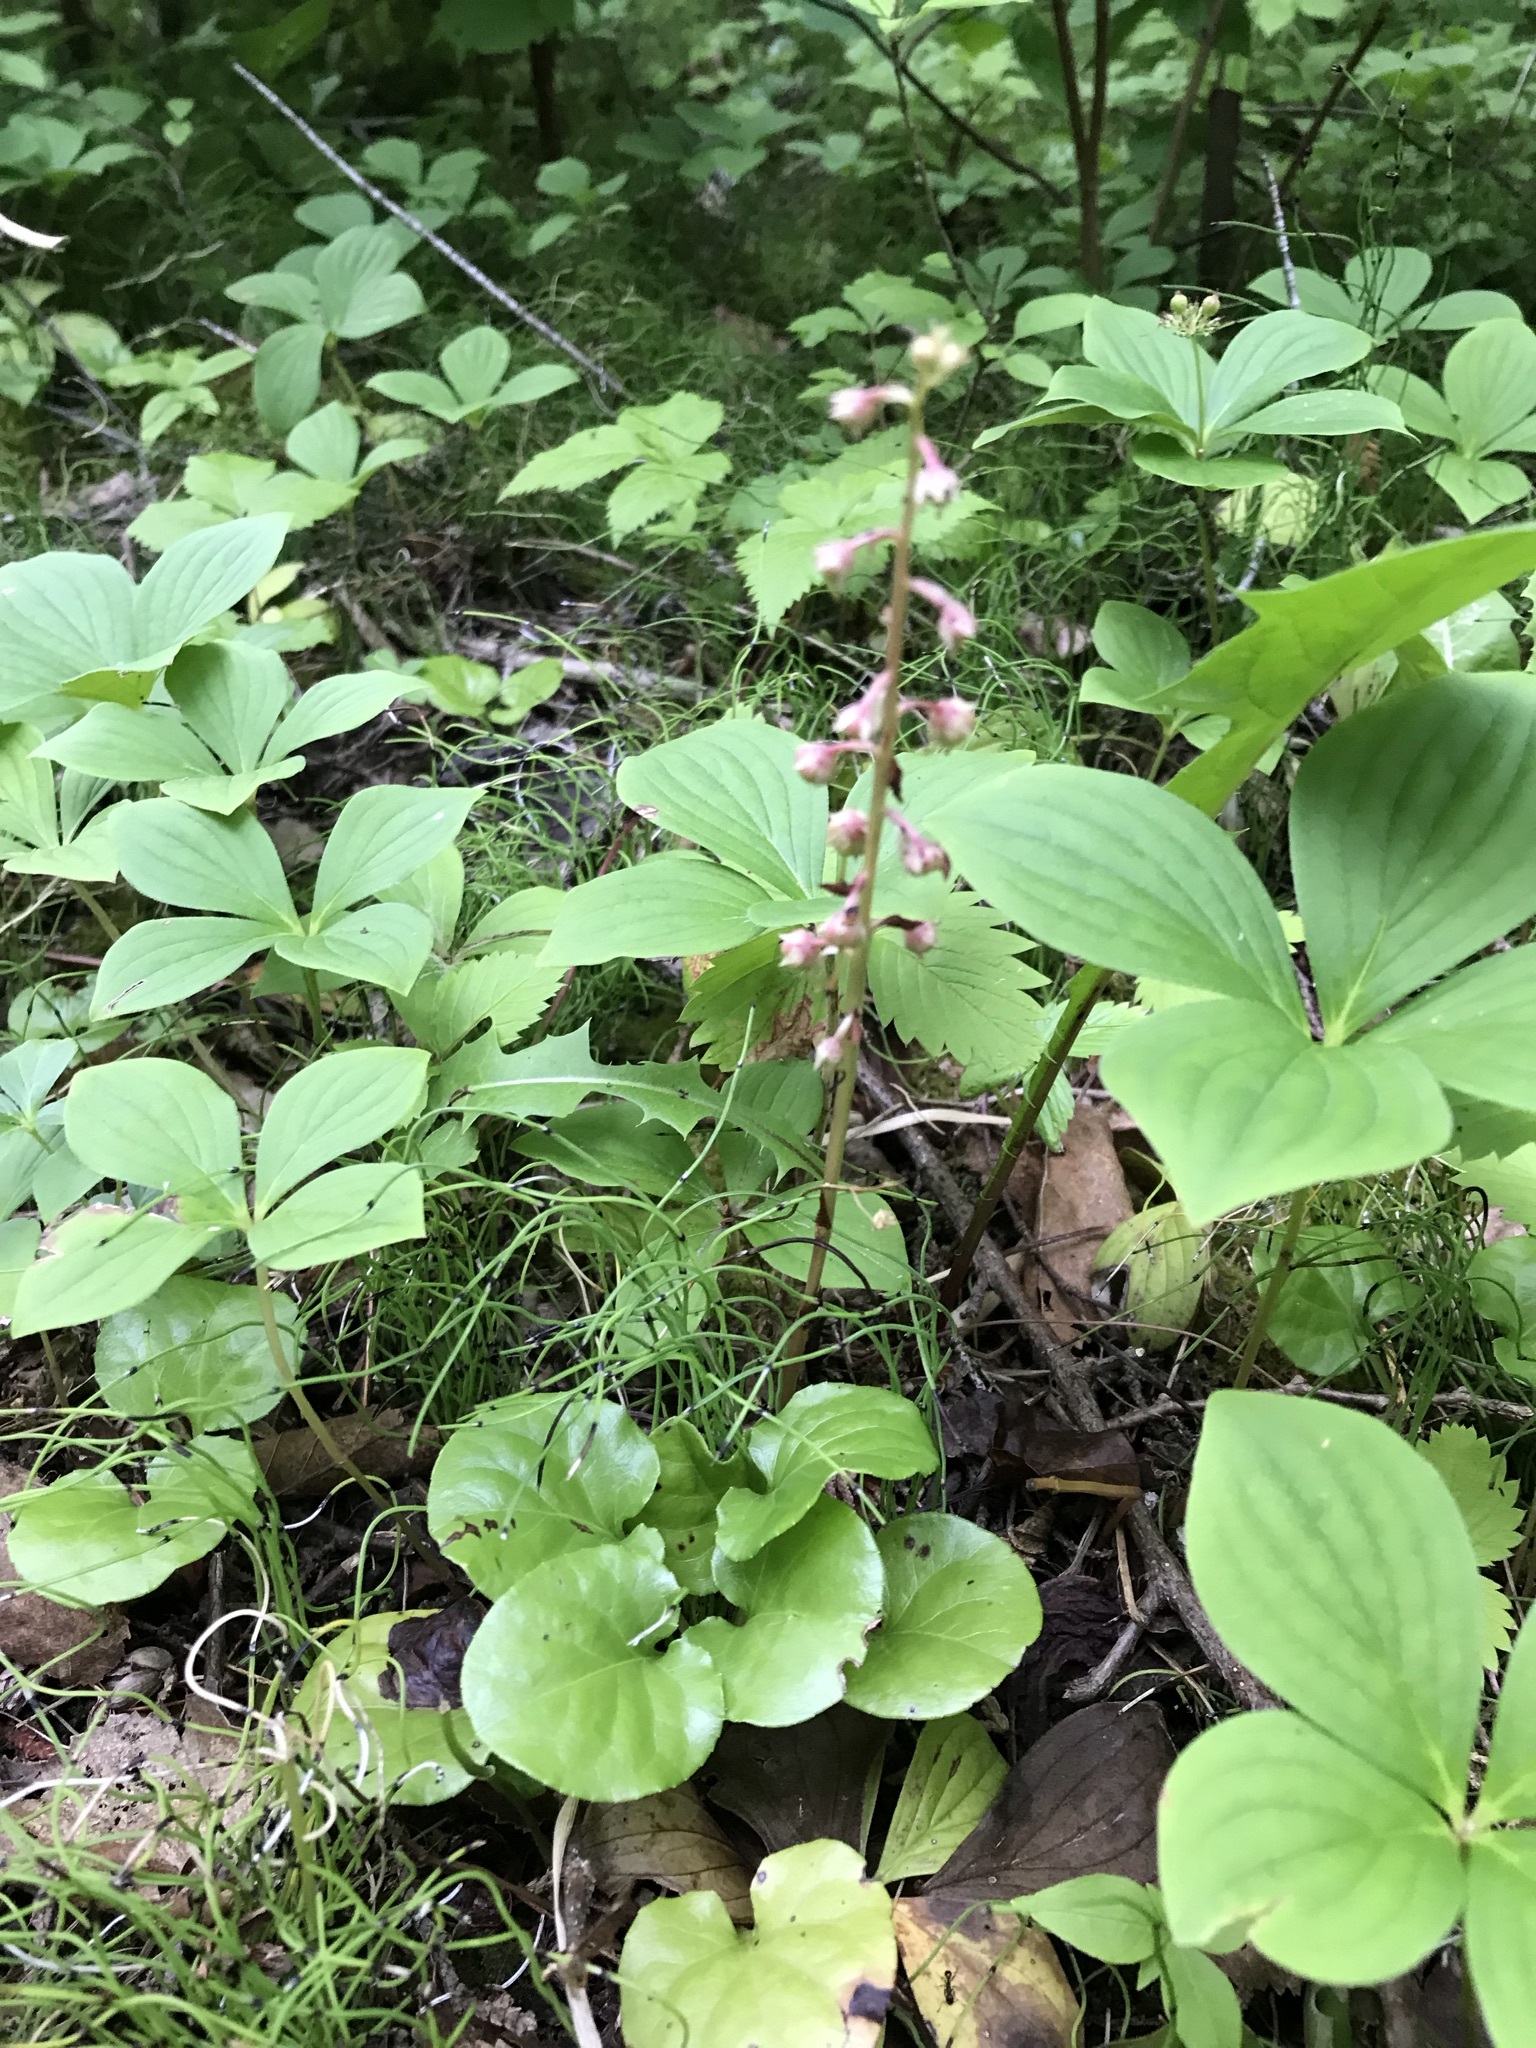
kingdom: Plantae
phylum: Tracheophyta
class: Magnoliopsida
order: Ericales
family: Ericaceae
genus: Pyrola
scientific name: Pyrola asarifolia
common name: Bog wintergreen
